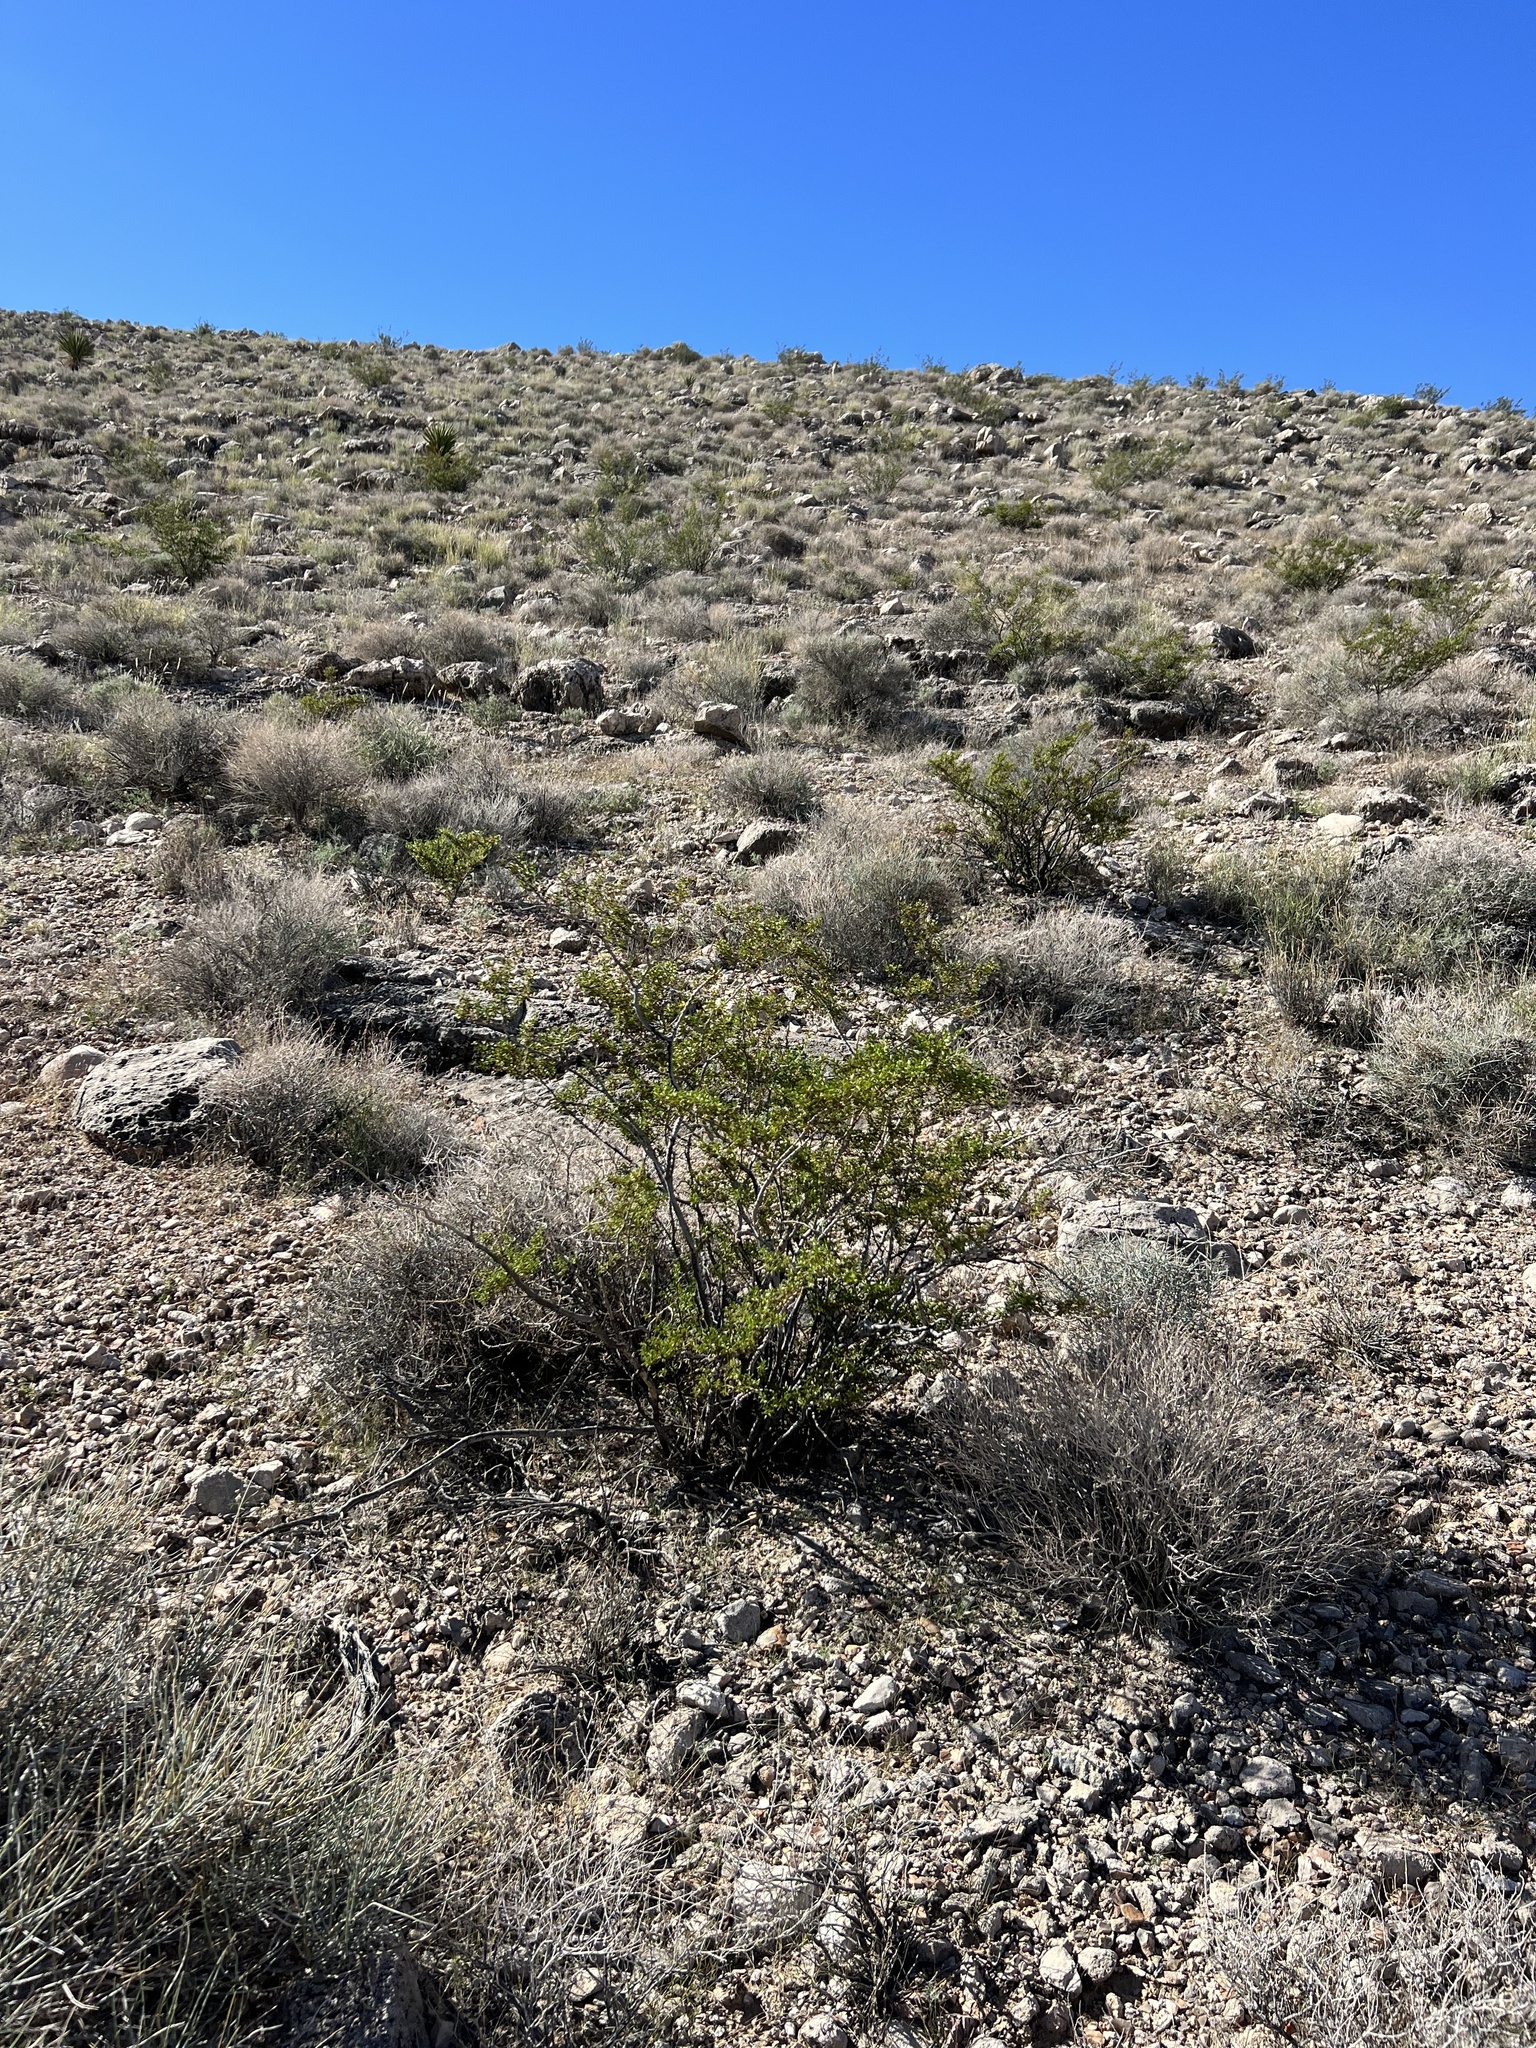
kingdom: Plantae
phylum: Tracheophyta
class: Magnoliopsida
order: Zygophyllales
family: Zygophyllaceae
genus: Larrea
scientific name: Larrea tridentata
